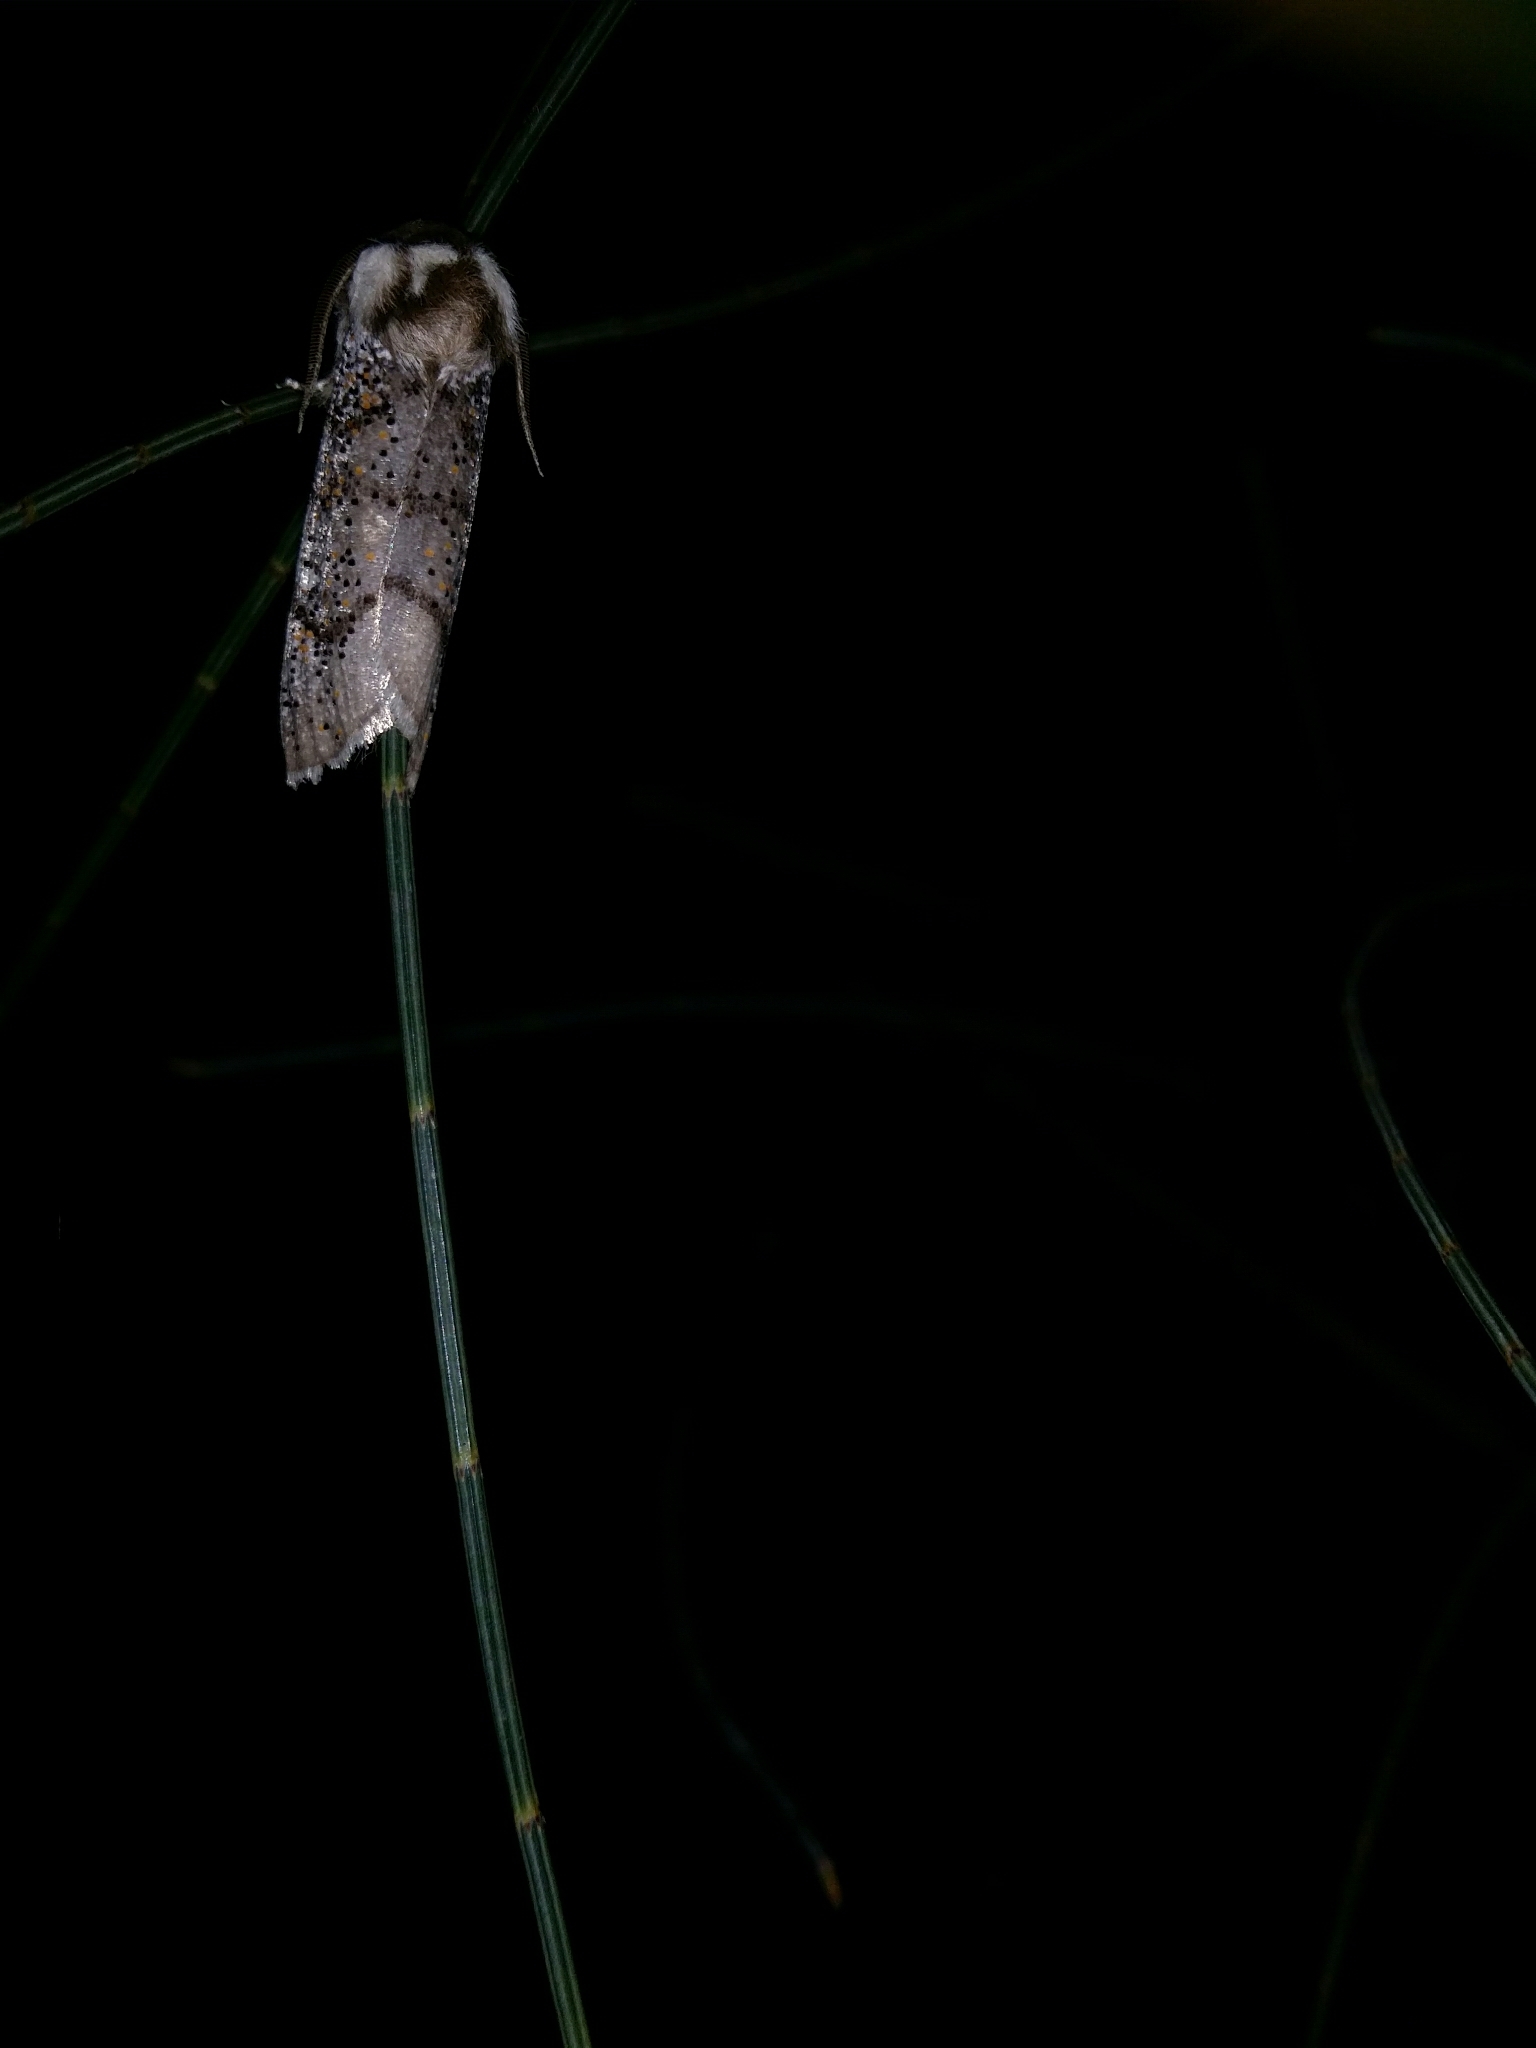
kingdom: Animalia
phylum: Arthropoda
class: Insecta
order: Lepidoptera
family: Oenosandridae
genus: Oenosandra
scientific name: Oenosandra boisduvalii
